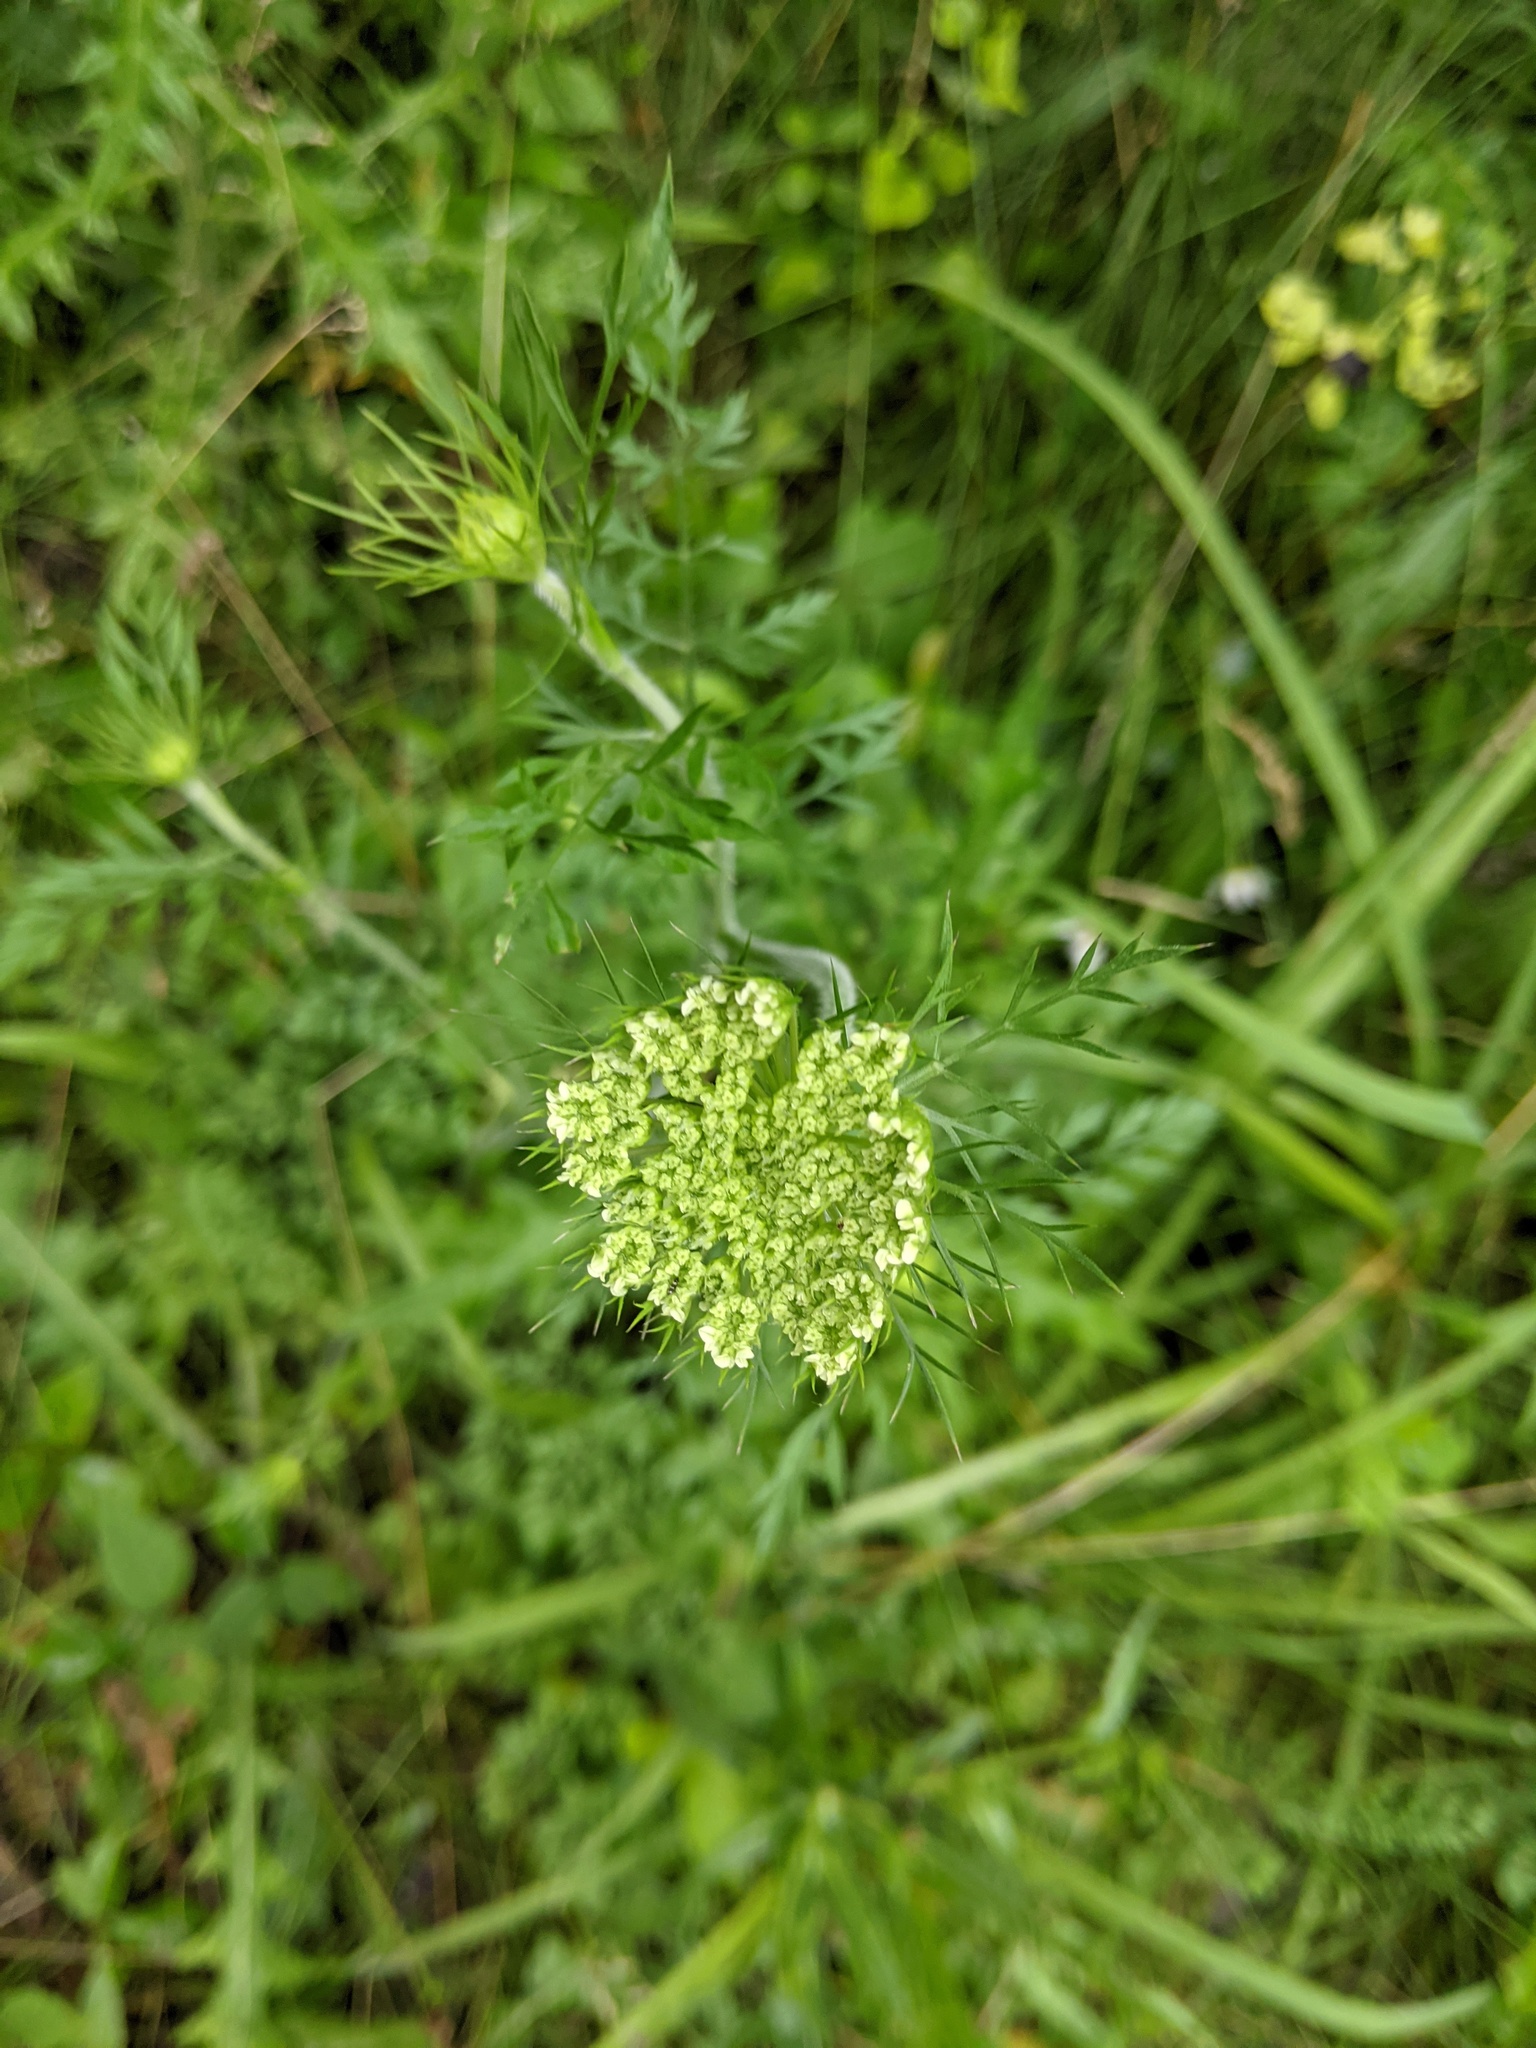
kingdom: Plantae
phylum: Tracheophyta
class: Magnoliopsida
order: Apiales
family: Apiaceae
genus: Daucus
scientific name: Daucus carota
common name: Wild carrot
